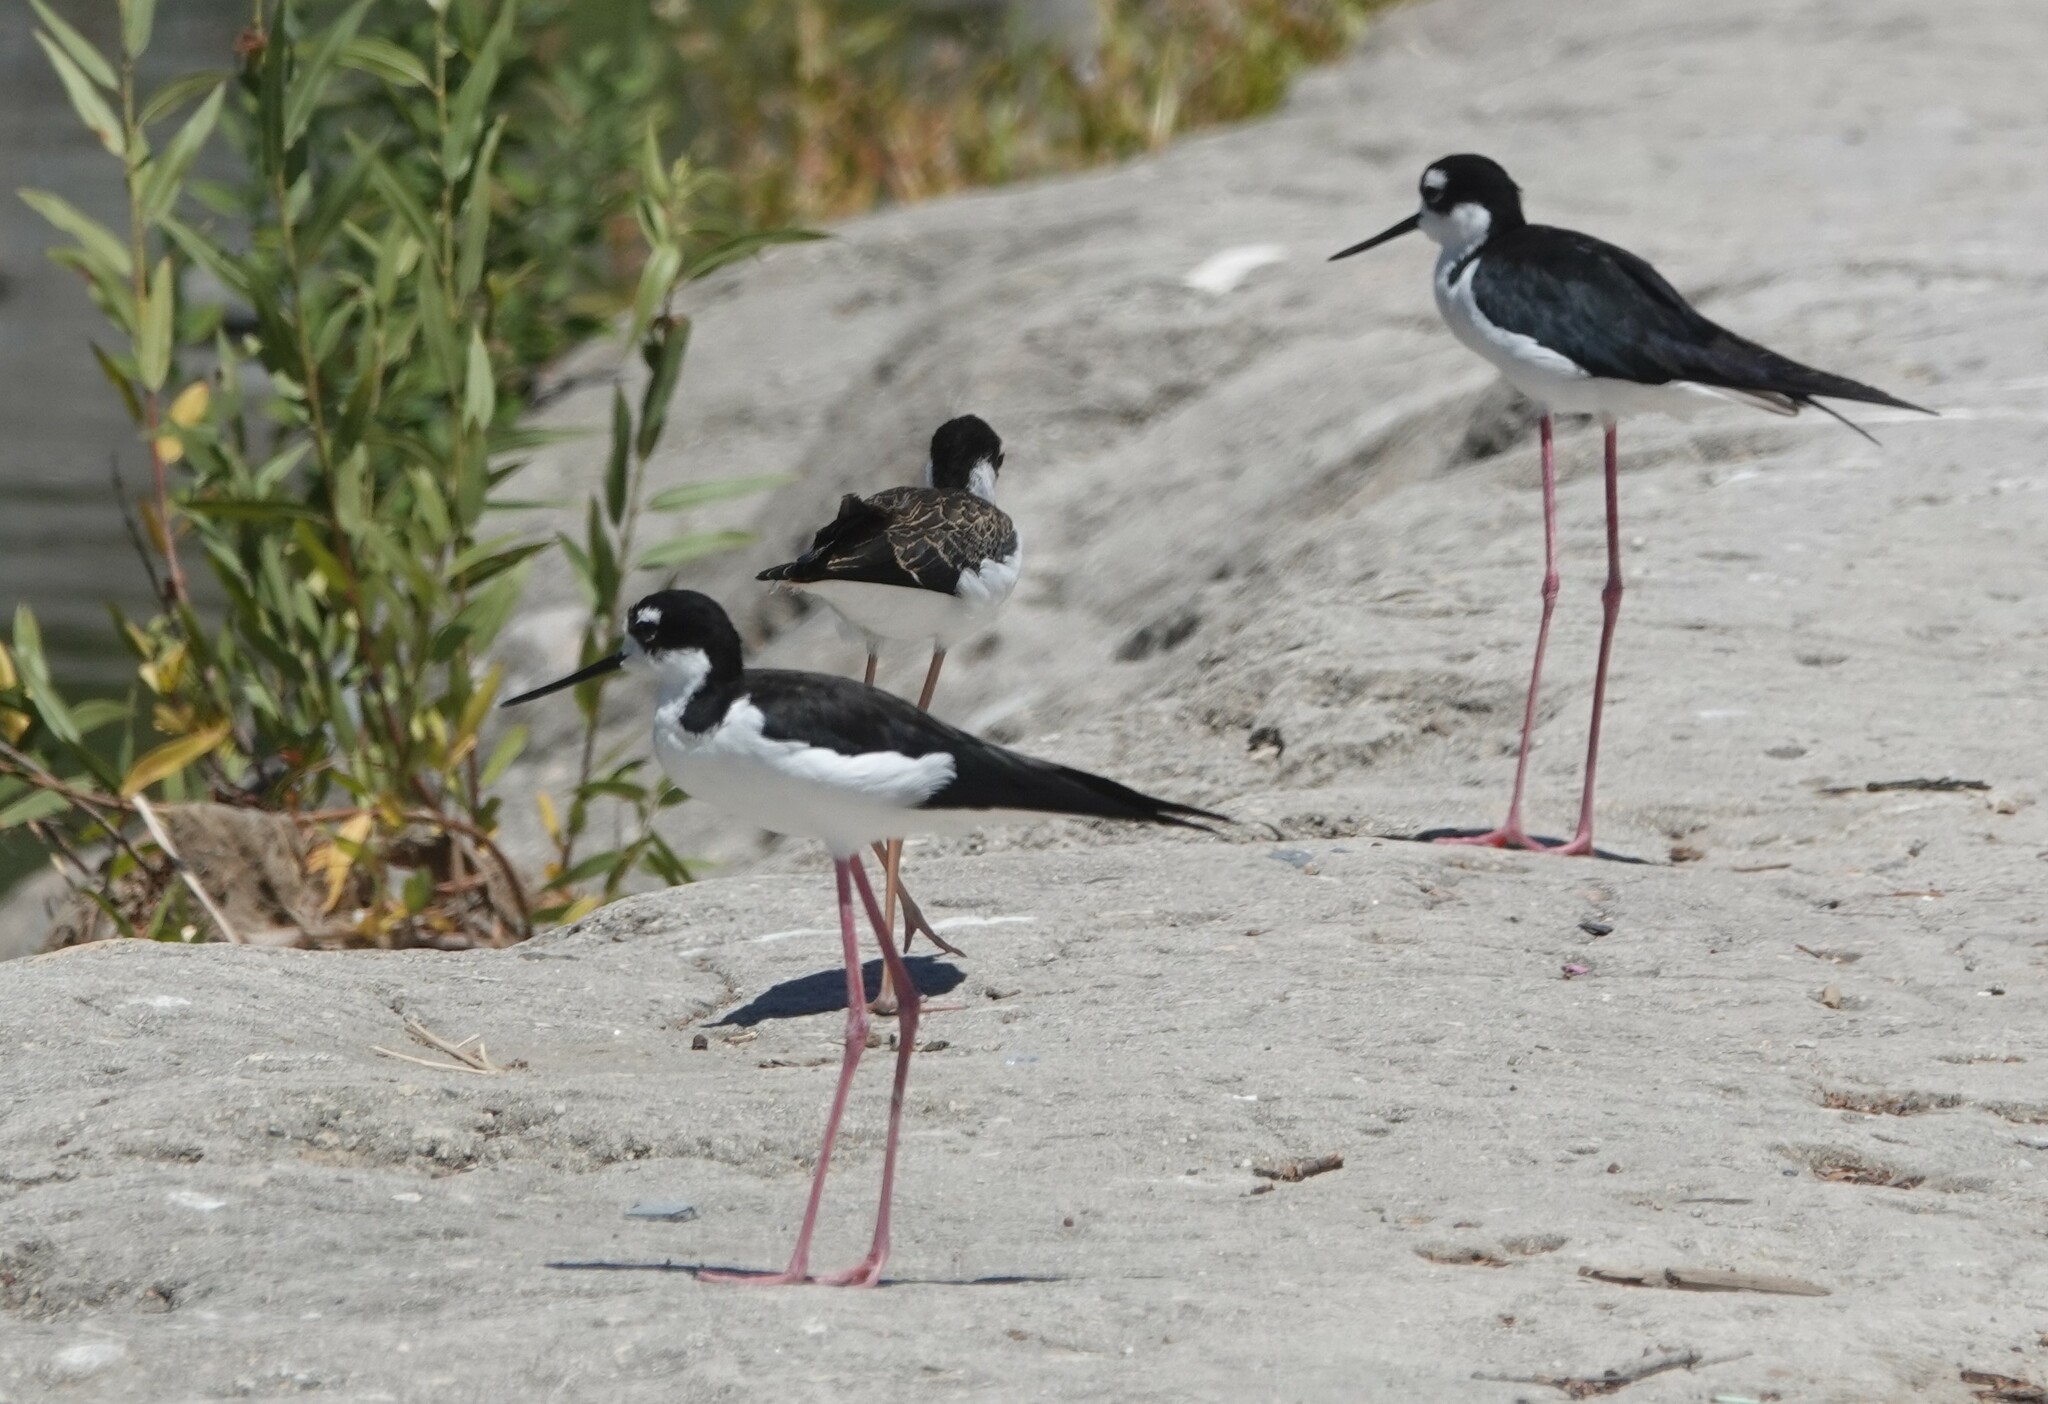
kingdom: Animalia
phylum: Chordata
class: Aves
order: Charadriiformes
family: Recurvirostridae
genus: Himantopus
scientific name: Himantopus mexicanus
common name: Black-necked stilt
